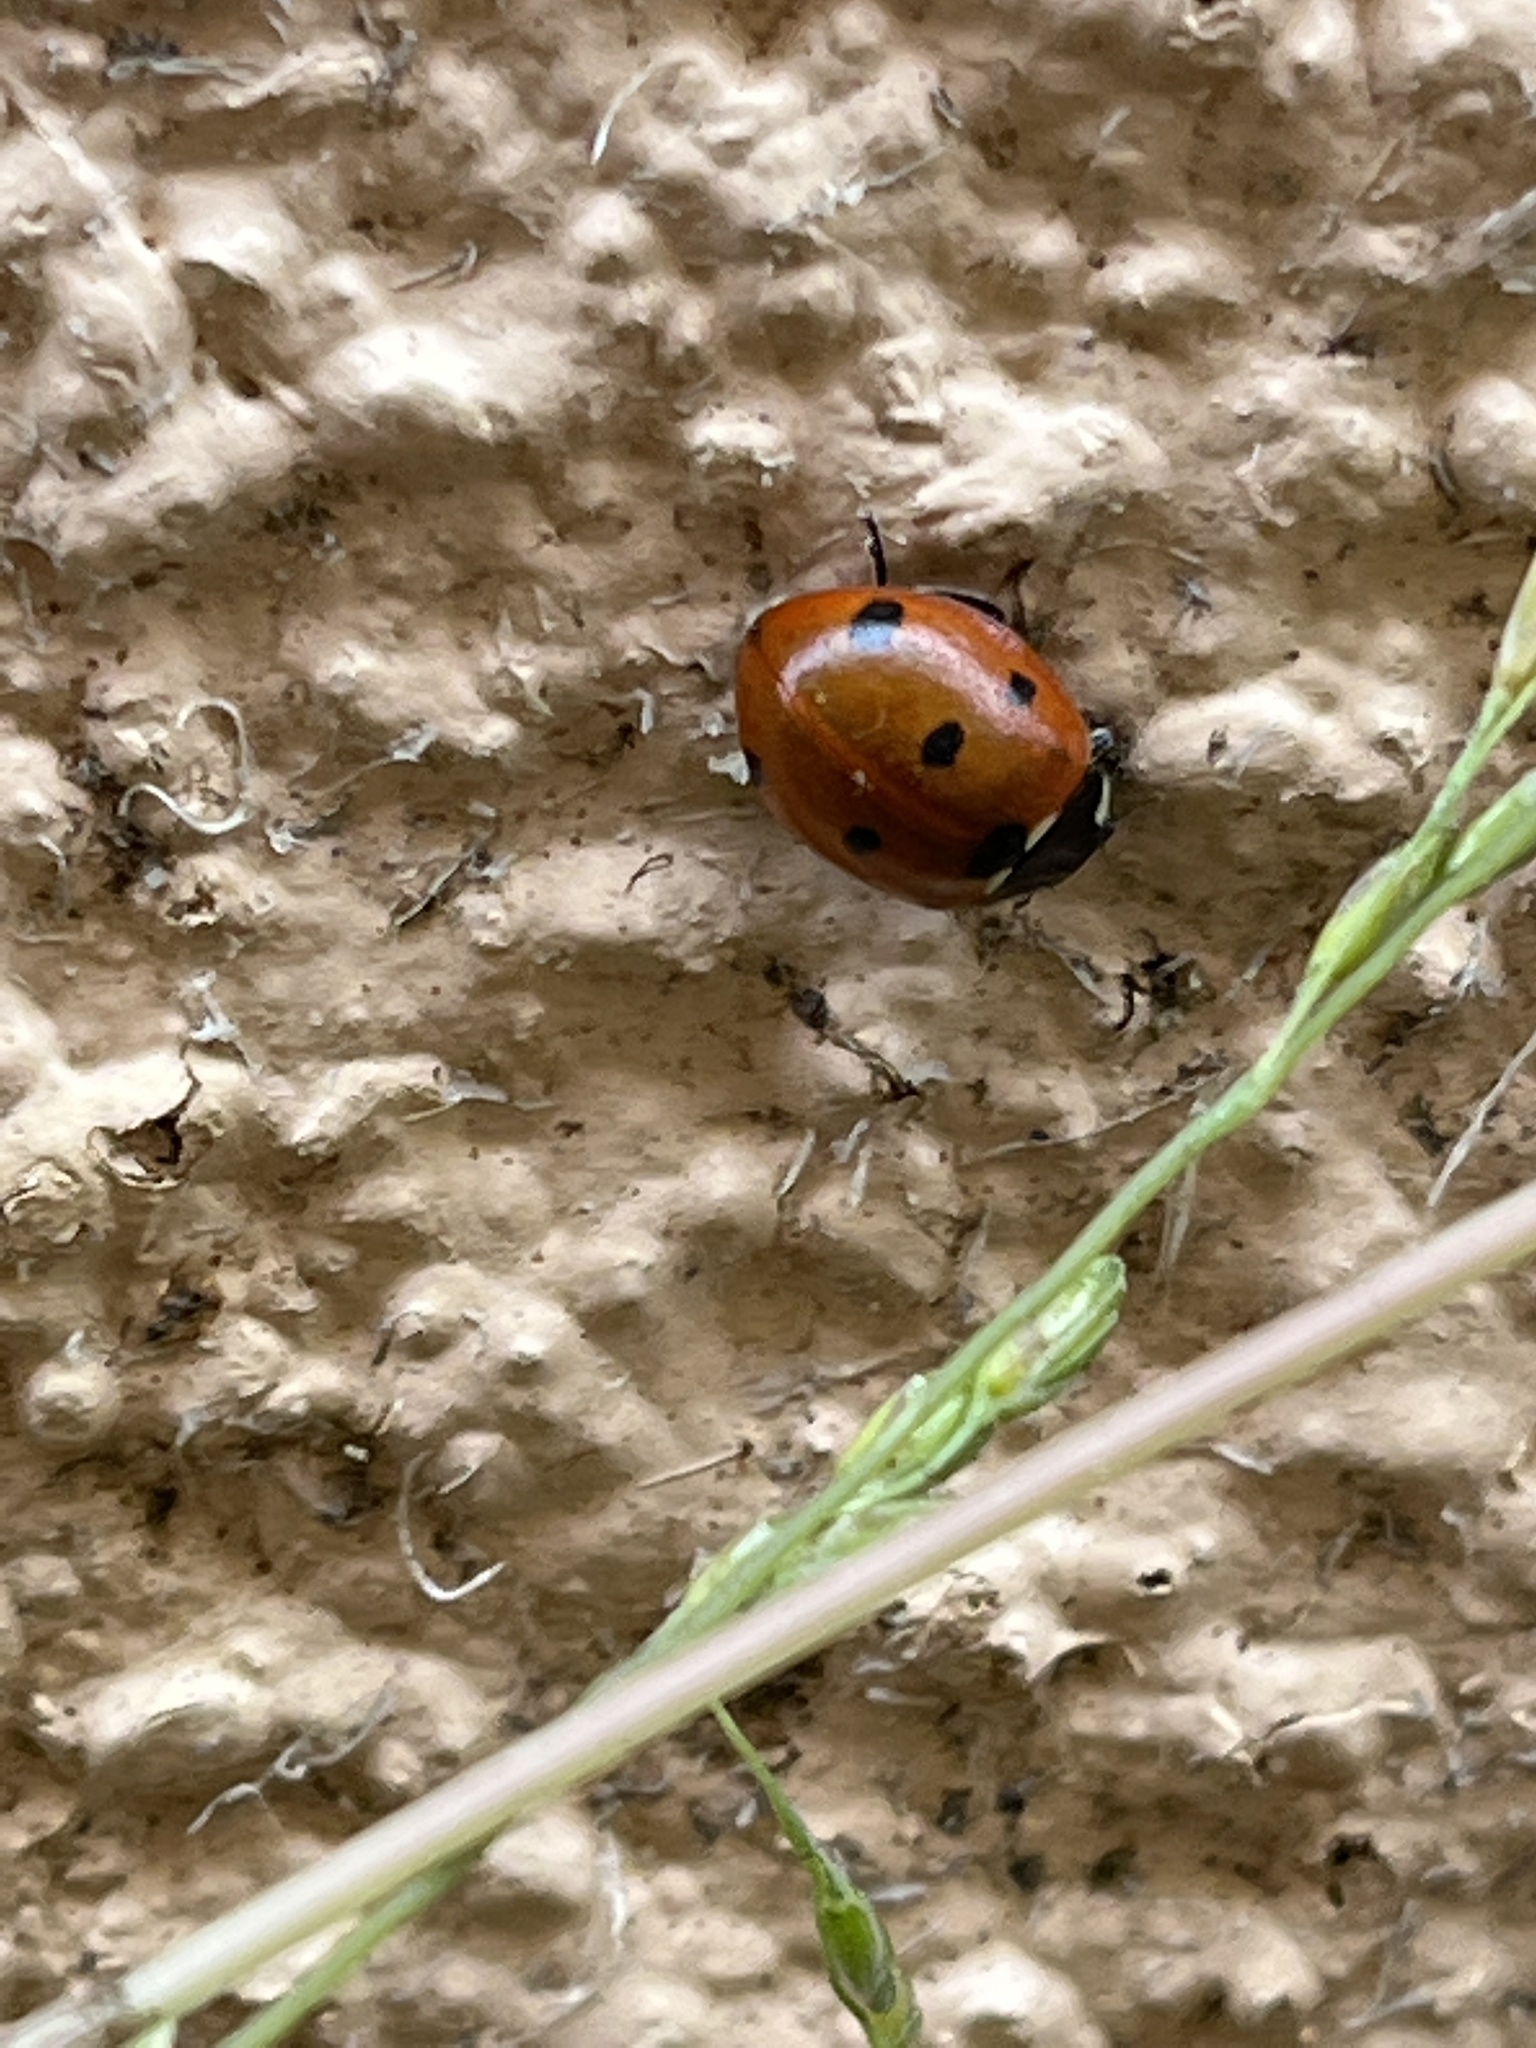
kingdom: Animalia
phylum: Arthropoda
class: Insecta
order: Coleoptera
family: Coccinellidae
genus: Coccinella
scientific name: Coccinella septempunctata
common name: Sevenspotted lady beetle
